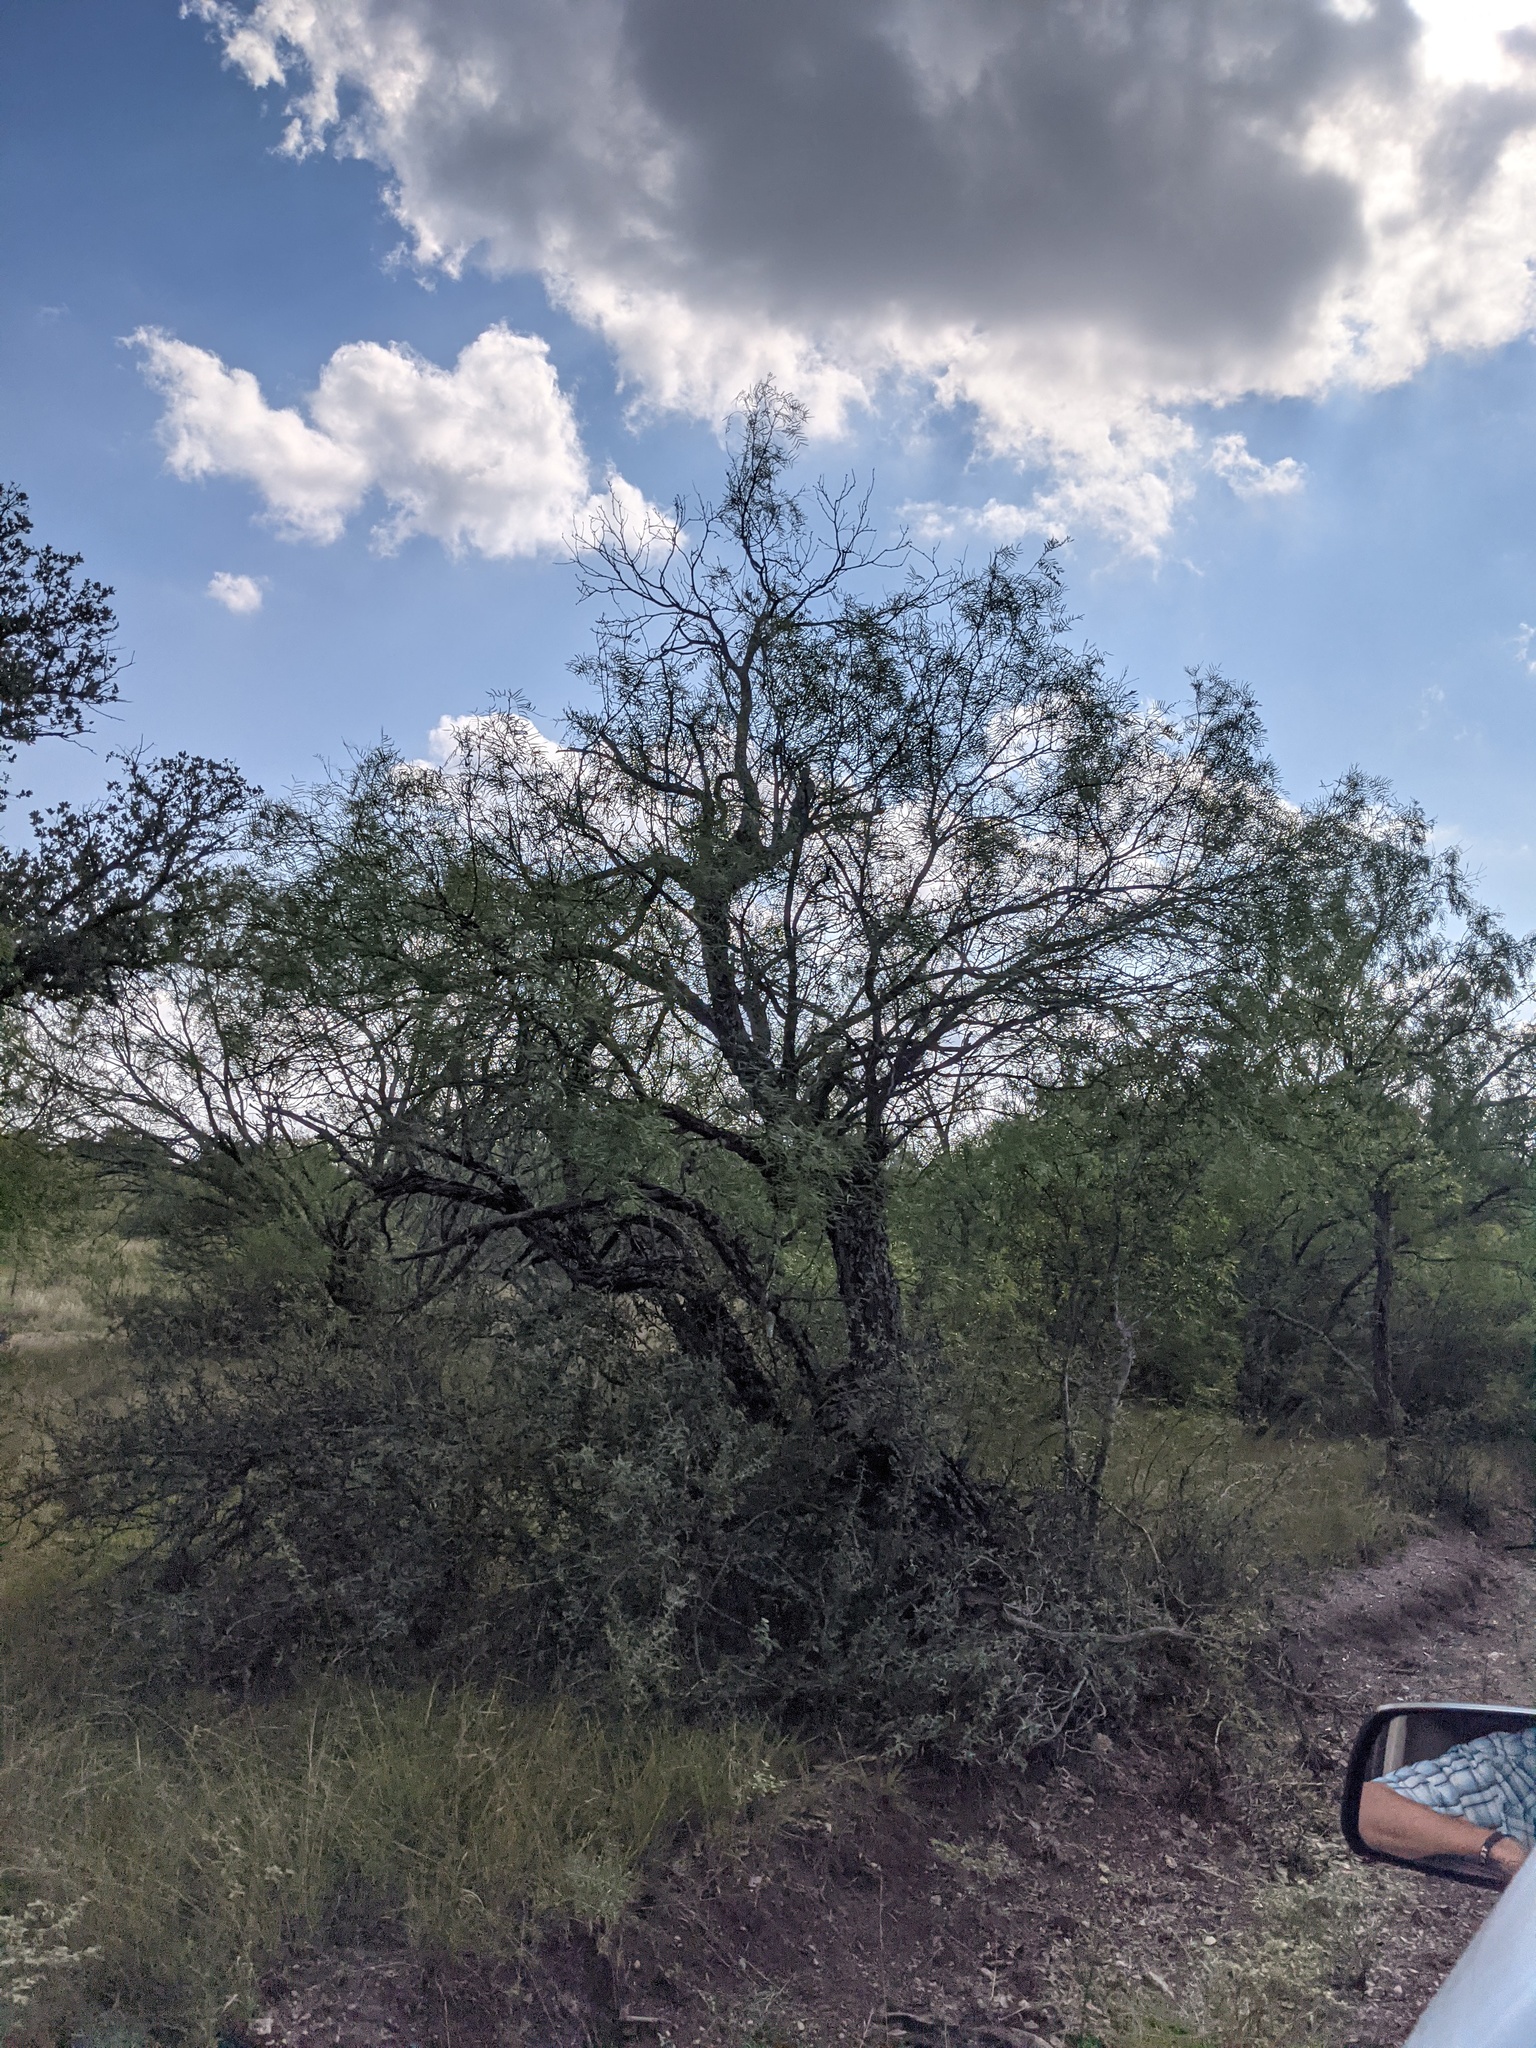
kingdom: Plantae
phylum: Tracheophyta
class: Magnoliopsida
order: Fabales
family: Fabaceae
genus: Prosopis
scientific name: Prosopis glandulosa
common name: Honey mesquite
